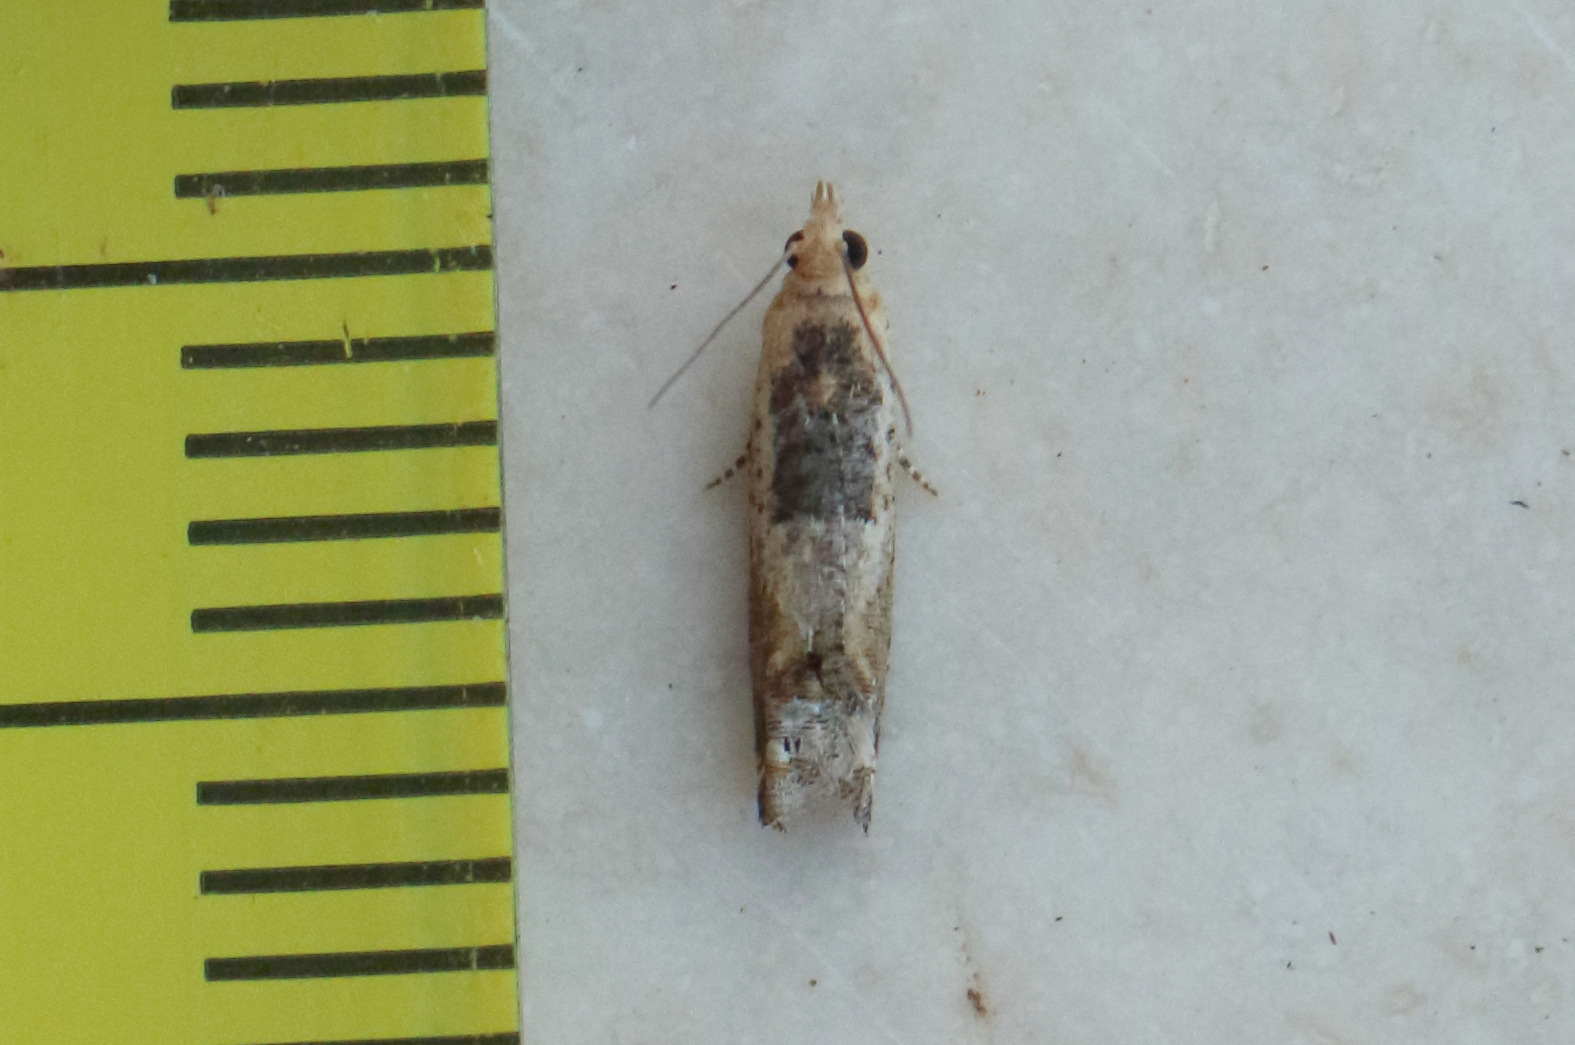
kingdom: Animalia
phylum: Arthropoda
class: Insecta
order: Lepidoptera
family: Tortricidae
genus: Crocidosema
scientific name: Crocidosema plebejana
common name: Southern bell
